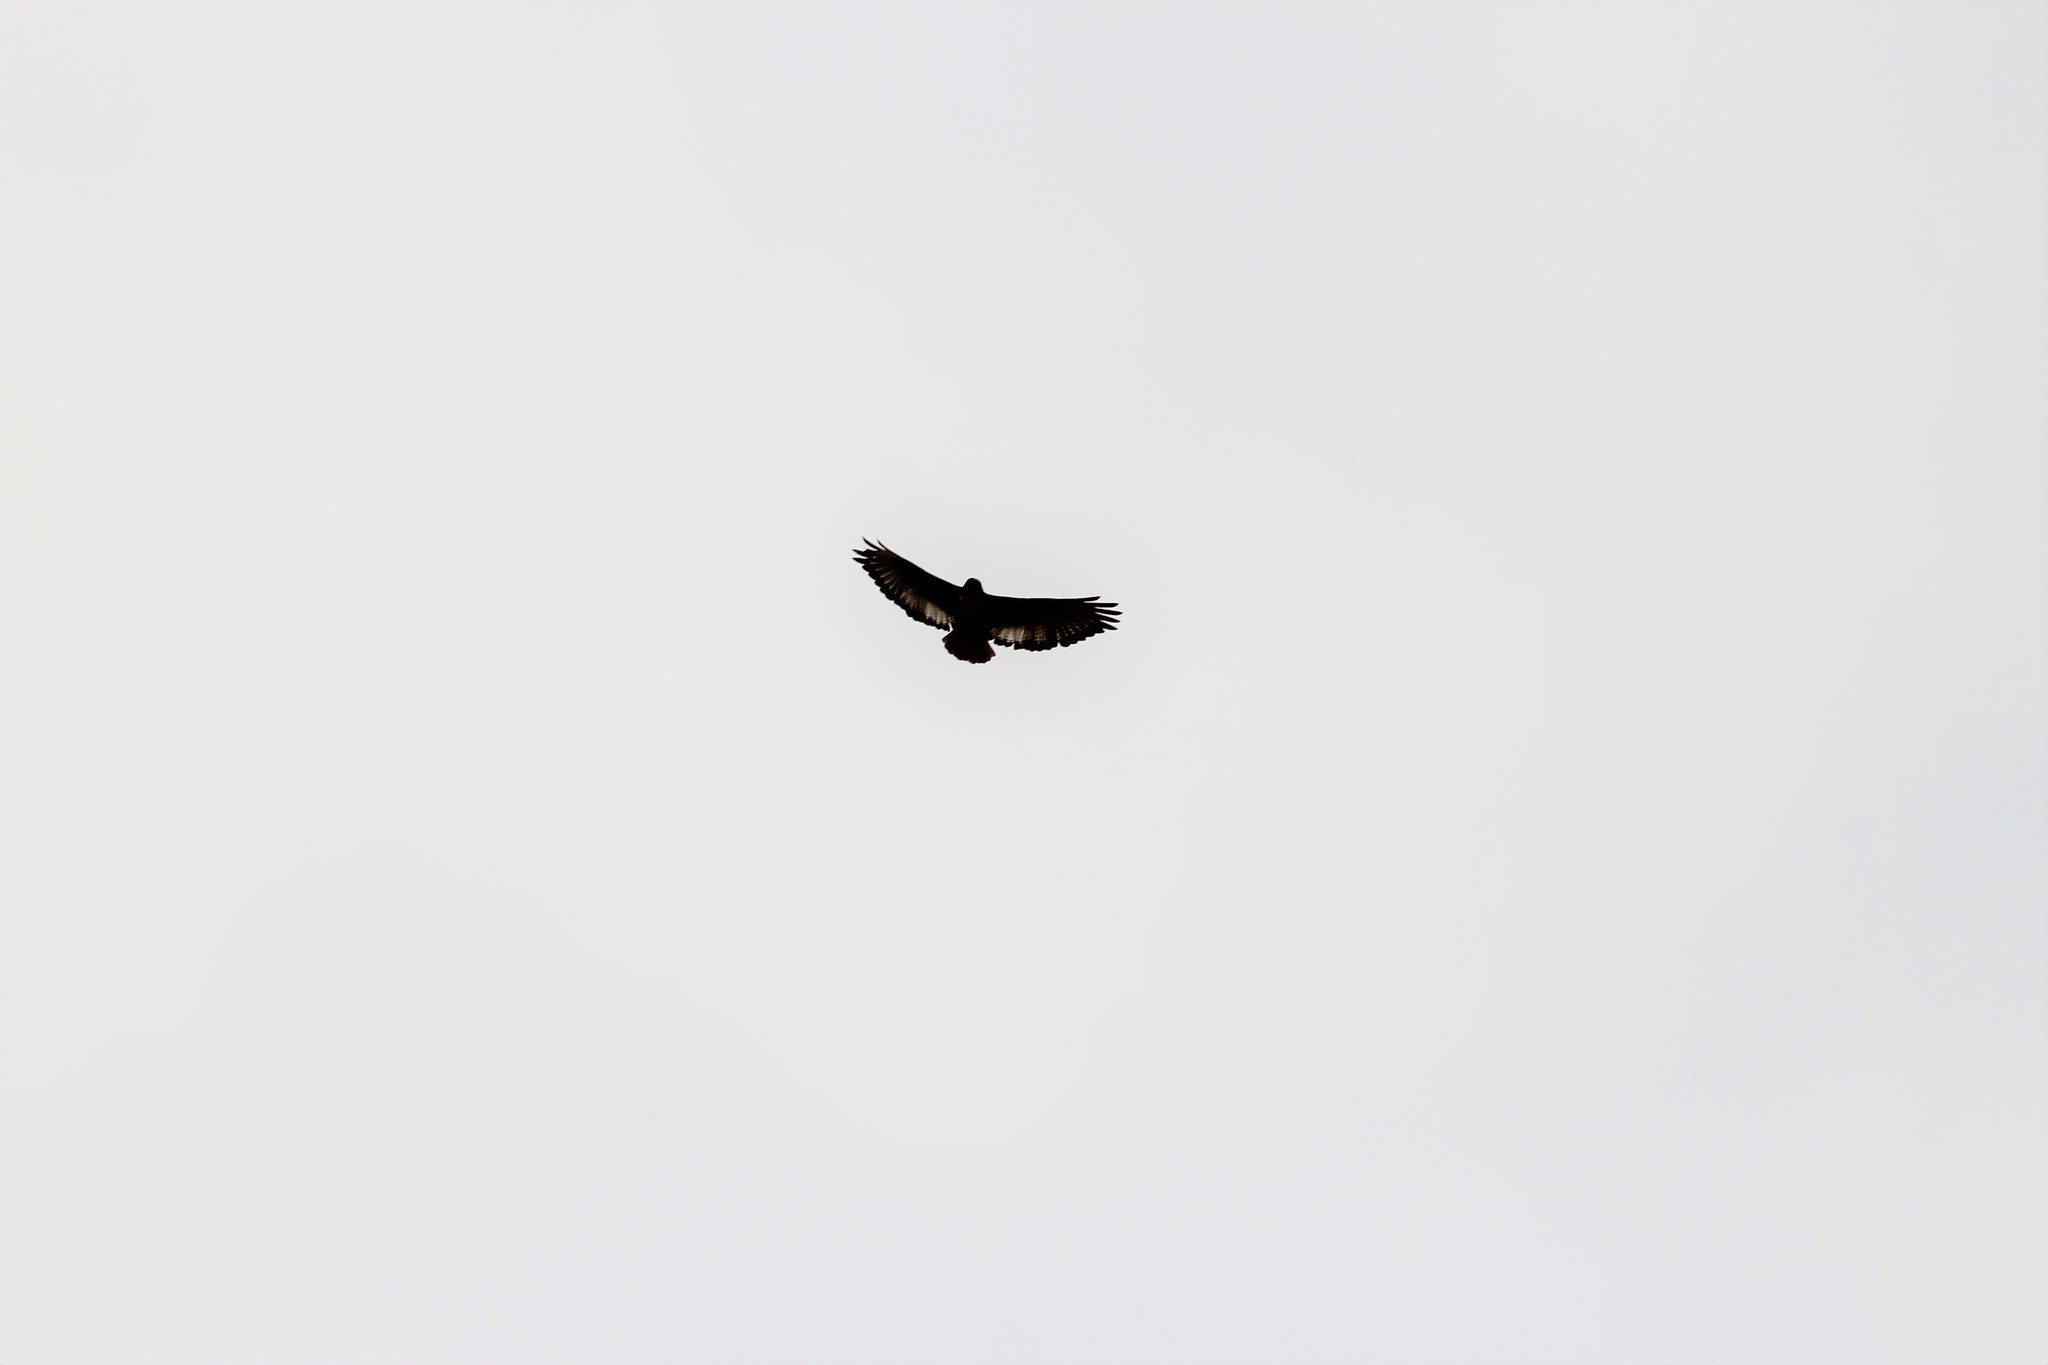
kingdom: Animalia
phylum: Chordata
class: Aves
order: Accipitriformes
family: Accipitridae
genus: Buteo
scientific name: Buteo rufofuscus
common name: Jackal buzzard
